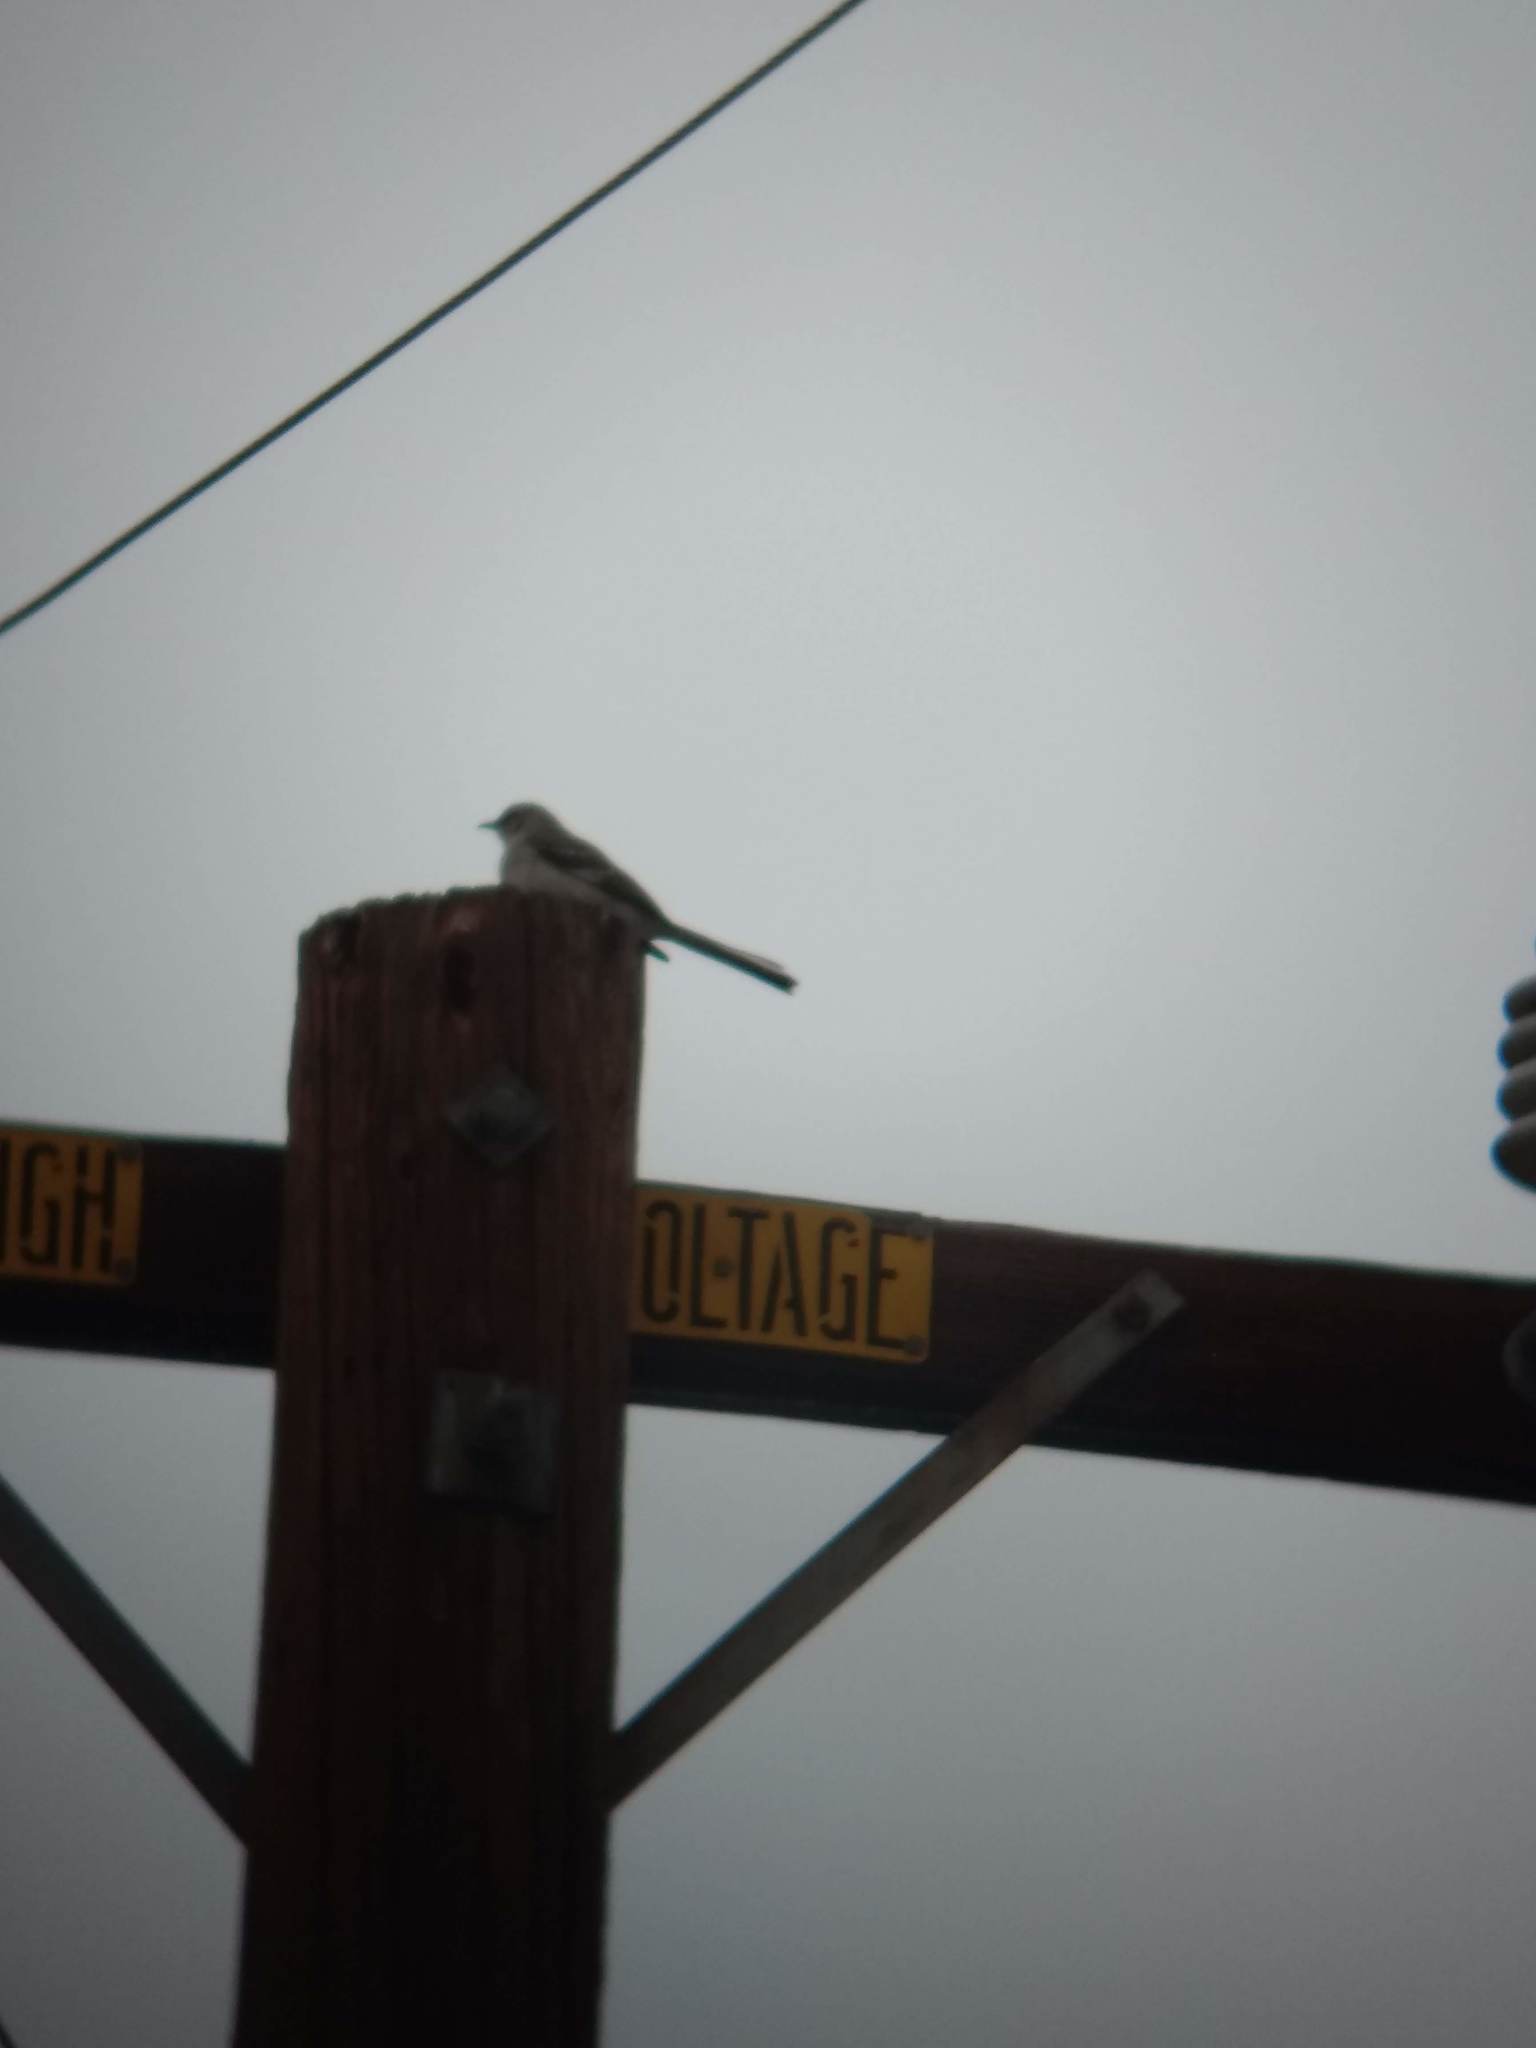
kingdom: Animalia
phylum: Chordata
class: Aves
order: Passeriformes
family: Mimidae
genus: Mimus
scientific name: Mimus polyglottos
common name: Northern mockingbird
